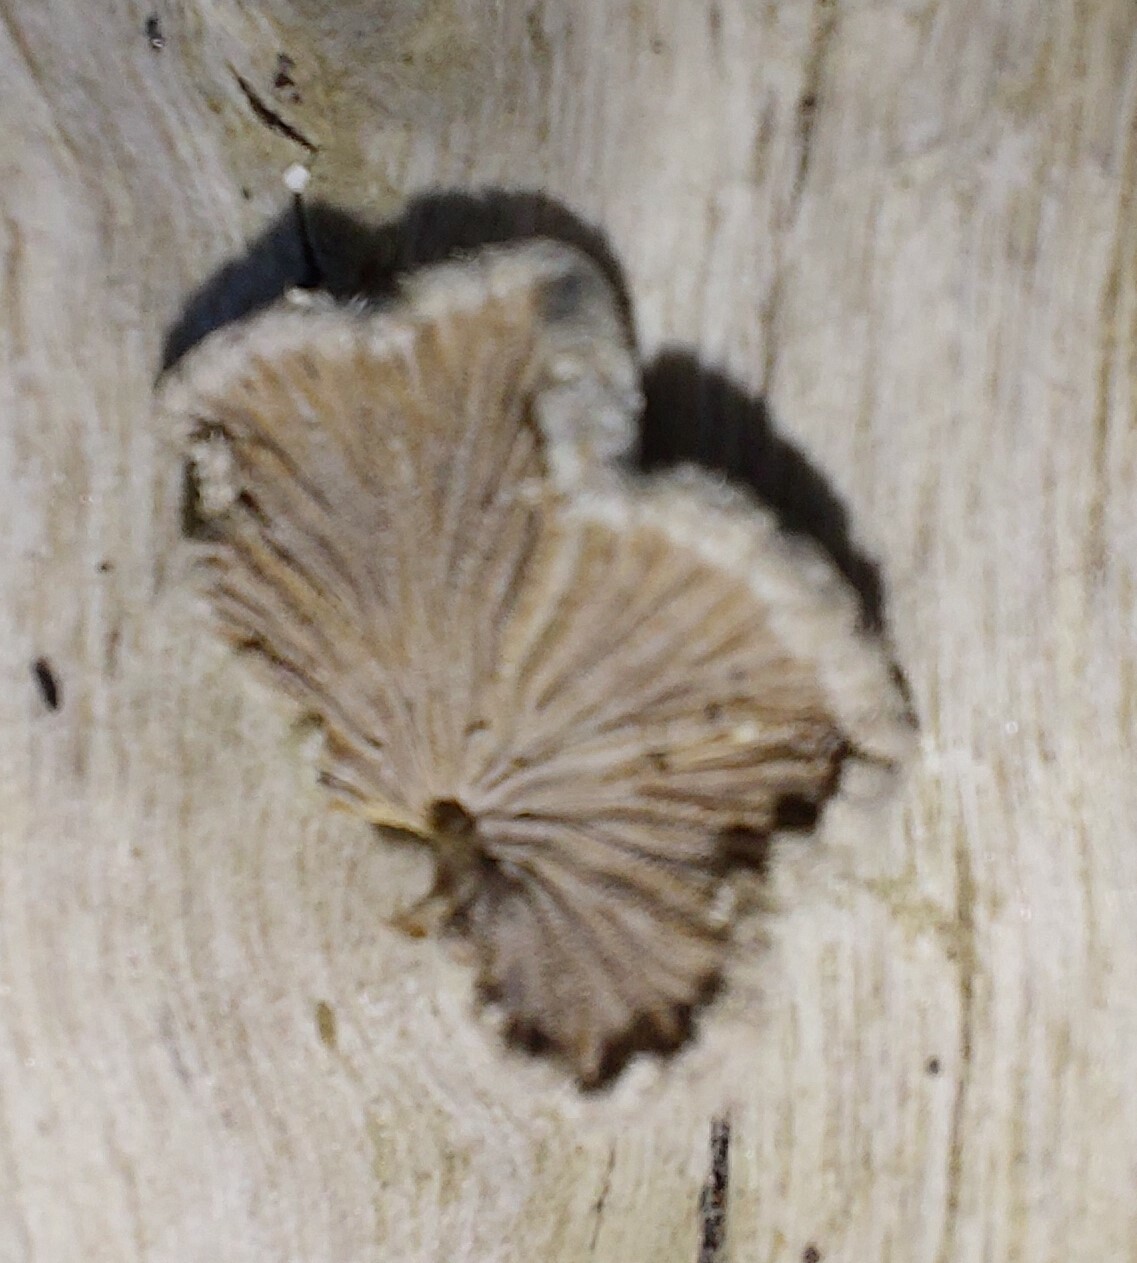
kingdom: Fungi
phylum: Basidiomycota
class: Agaricomycetes
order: Agaricales
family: Schizophyllaceae
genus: Schizophyllum
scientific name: Schizophyllum commune
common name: Common porecrust
